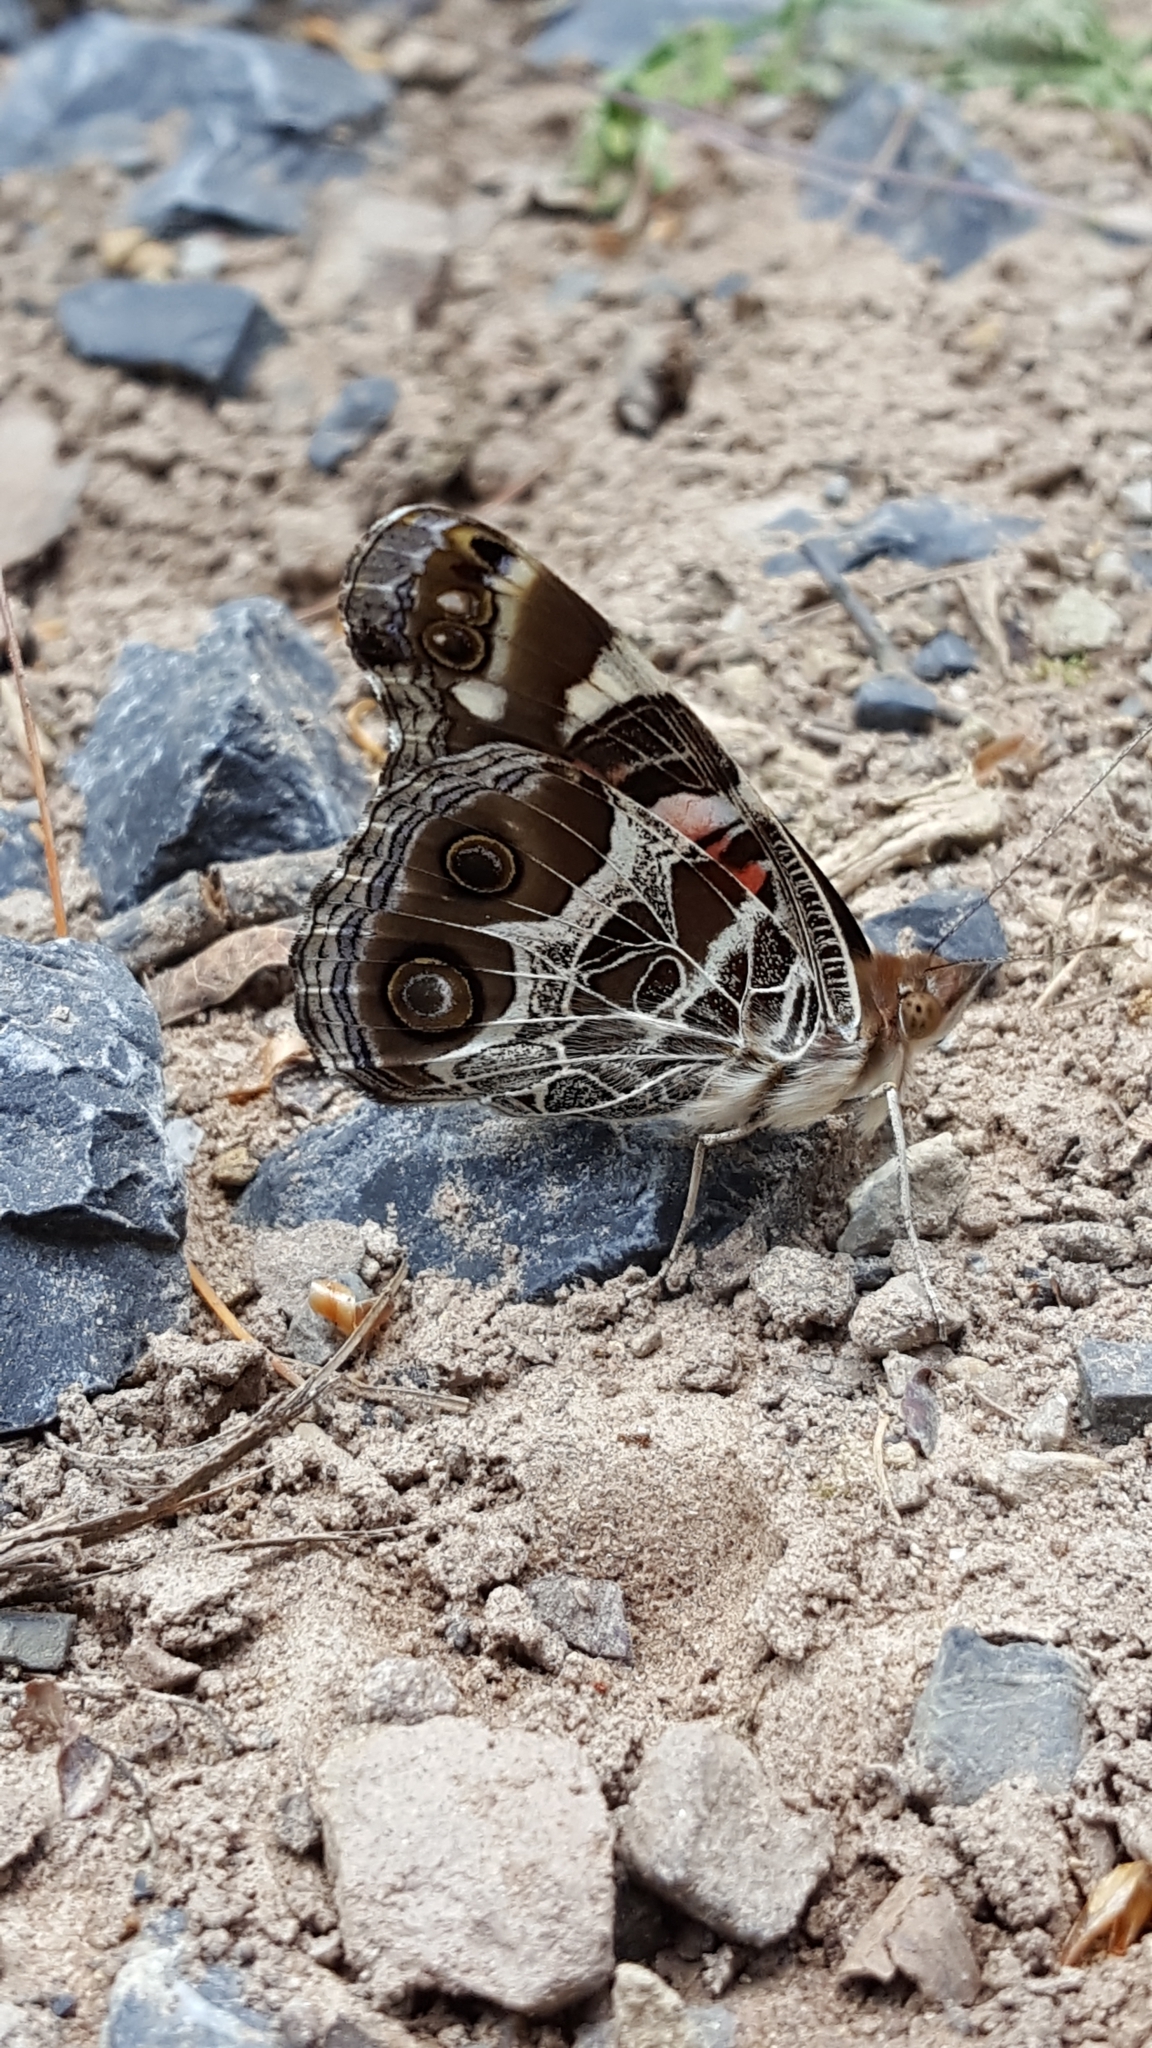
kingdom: Animalia
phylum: Arthropoda
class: Insecta
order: Lepidoptera
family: Nymphalidae
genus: Vanessa
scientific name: Vanessa virginiensis
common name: American lady
